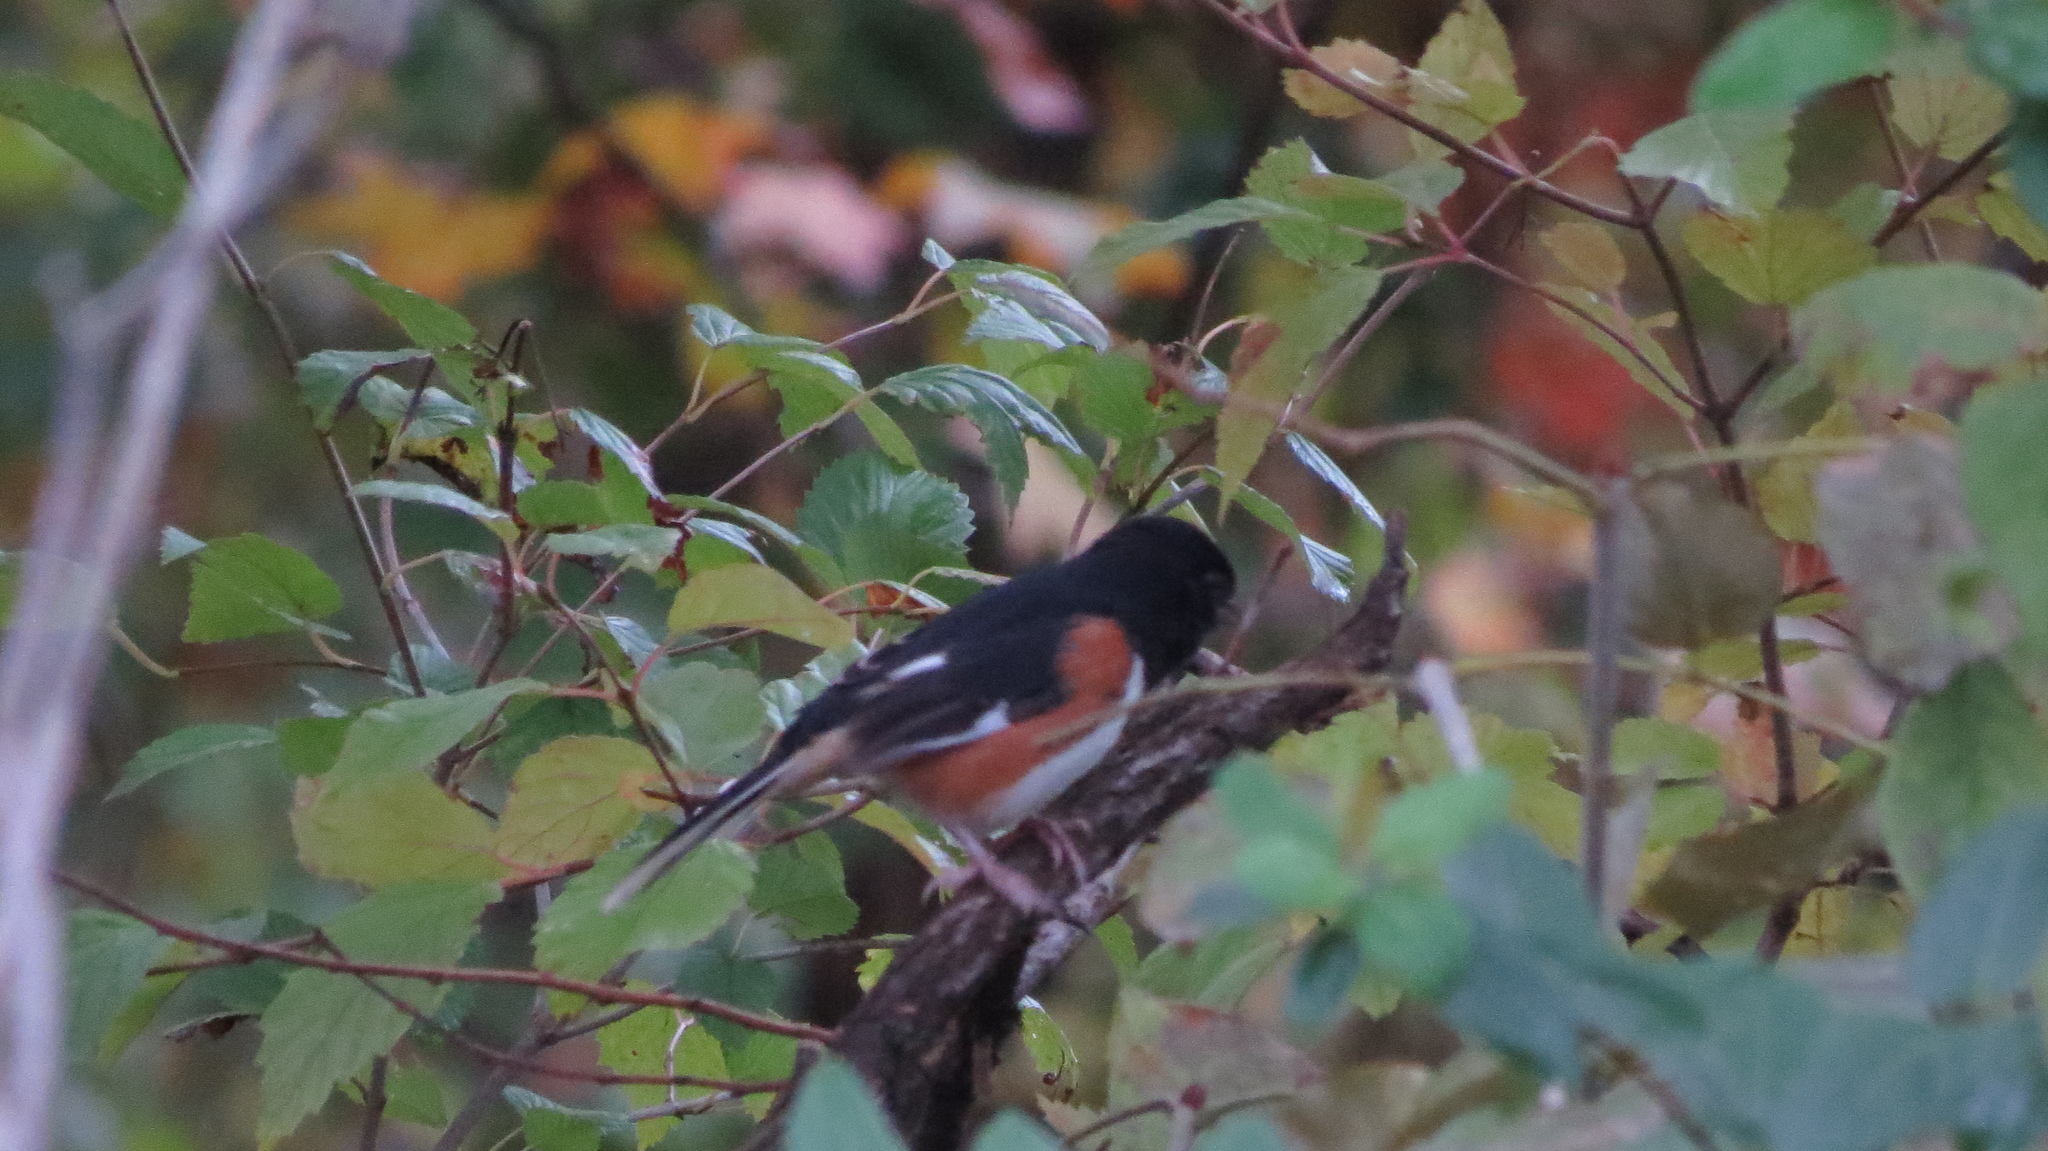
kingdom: Animalia
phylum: Chordata
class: Aves
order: Passeriformes
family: Passerellidae
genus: Pipilo
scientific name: Pipilo erythrophthalmus
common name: Eastern towhee
